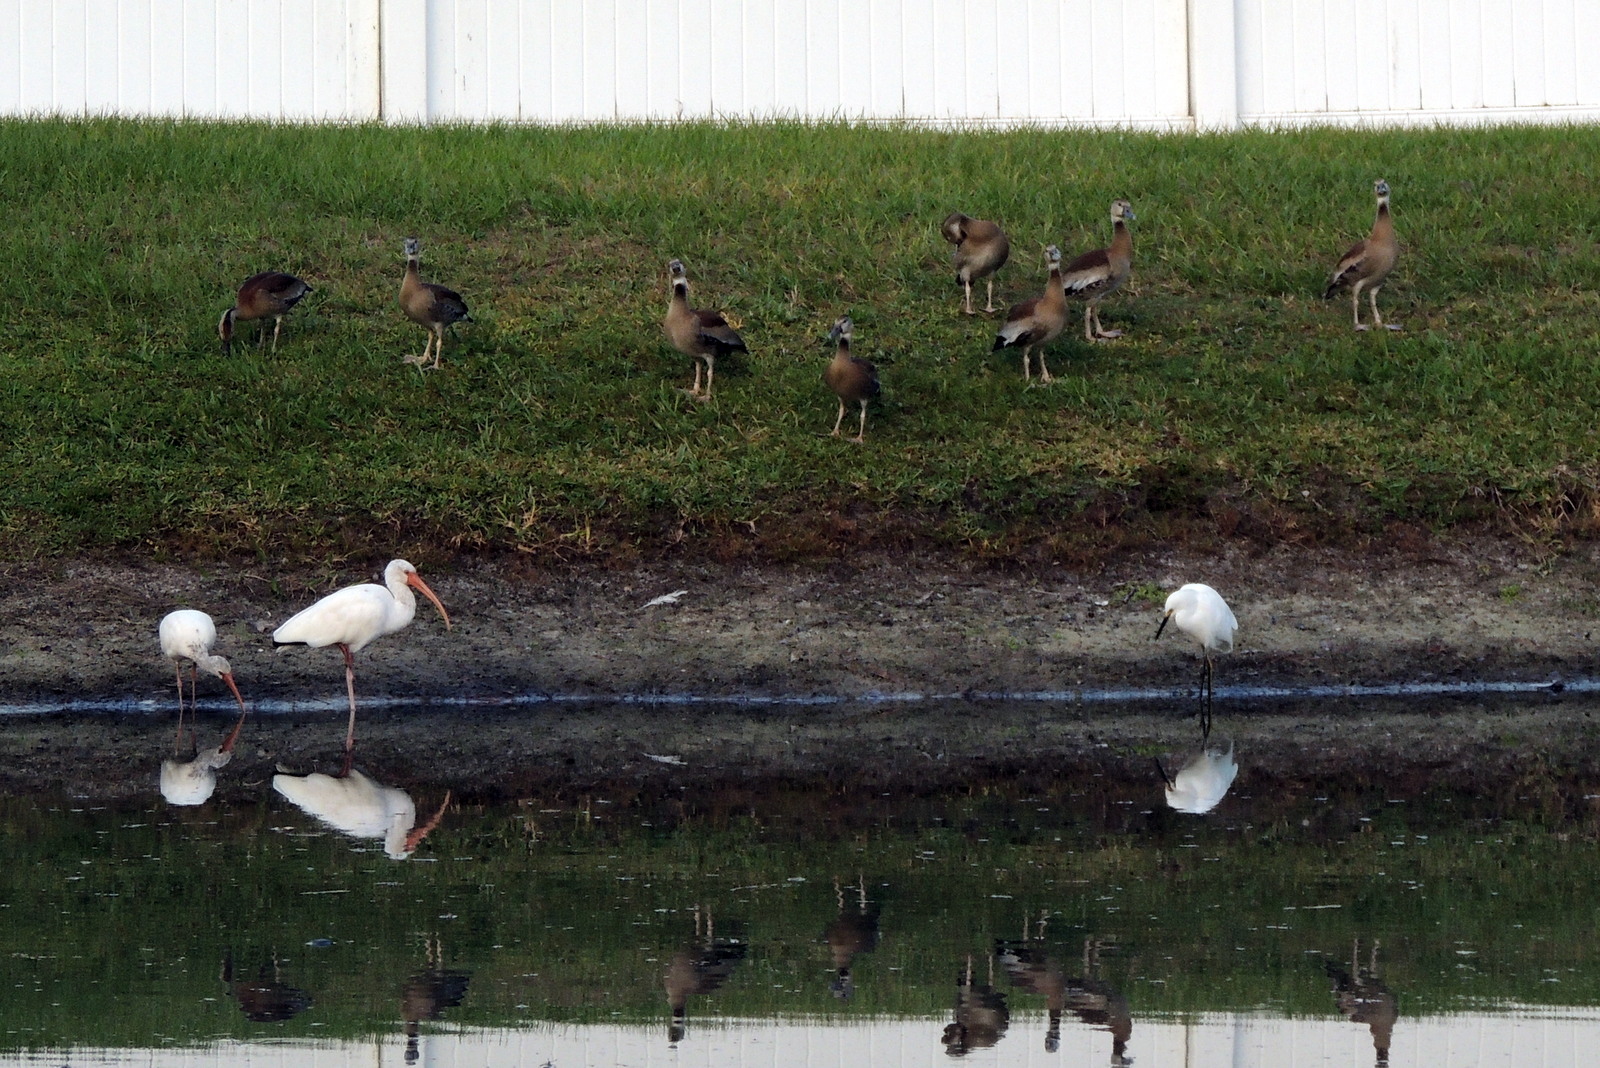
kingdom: Animalia
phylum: Chordata
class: Aves
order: Pelecaniformes
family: Threskiornithidae
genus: Eudocimus
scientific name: Eudocimus albus
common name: White ibis
